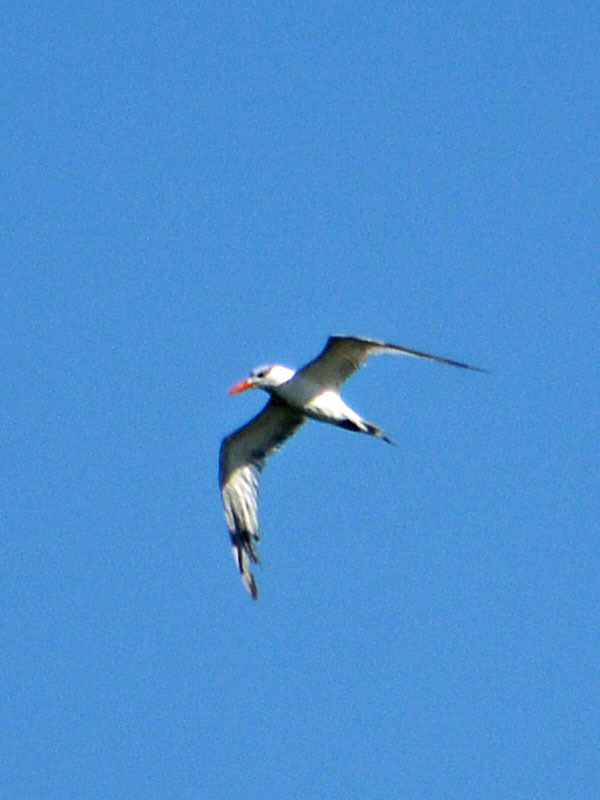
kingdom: Animalia
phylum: Chordata
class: Aves
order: Charadriiformes
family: Laridae
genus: Hydroprogne
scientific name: Hydroprogne caspia
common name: Caspian tern
